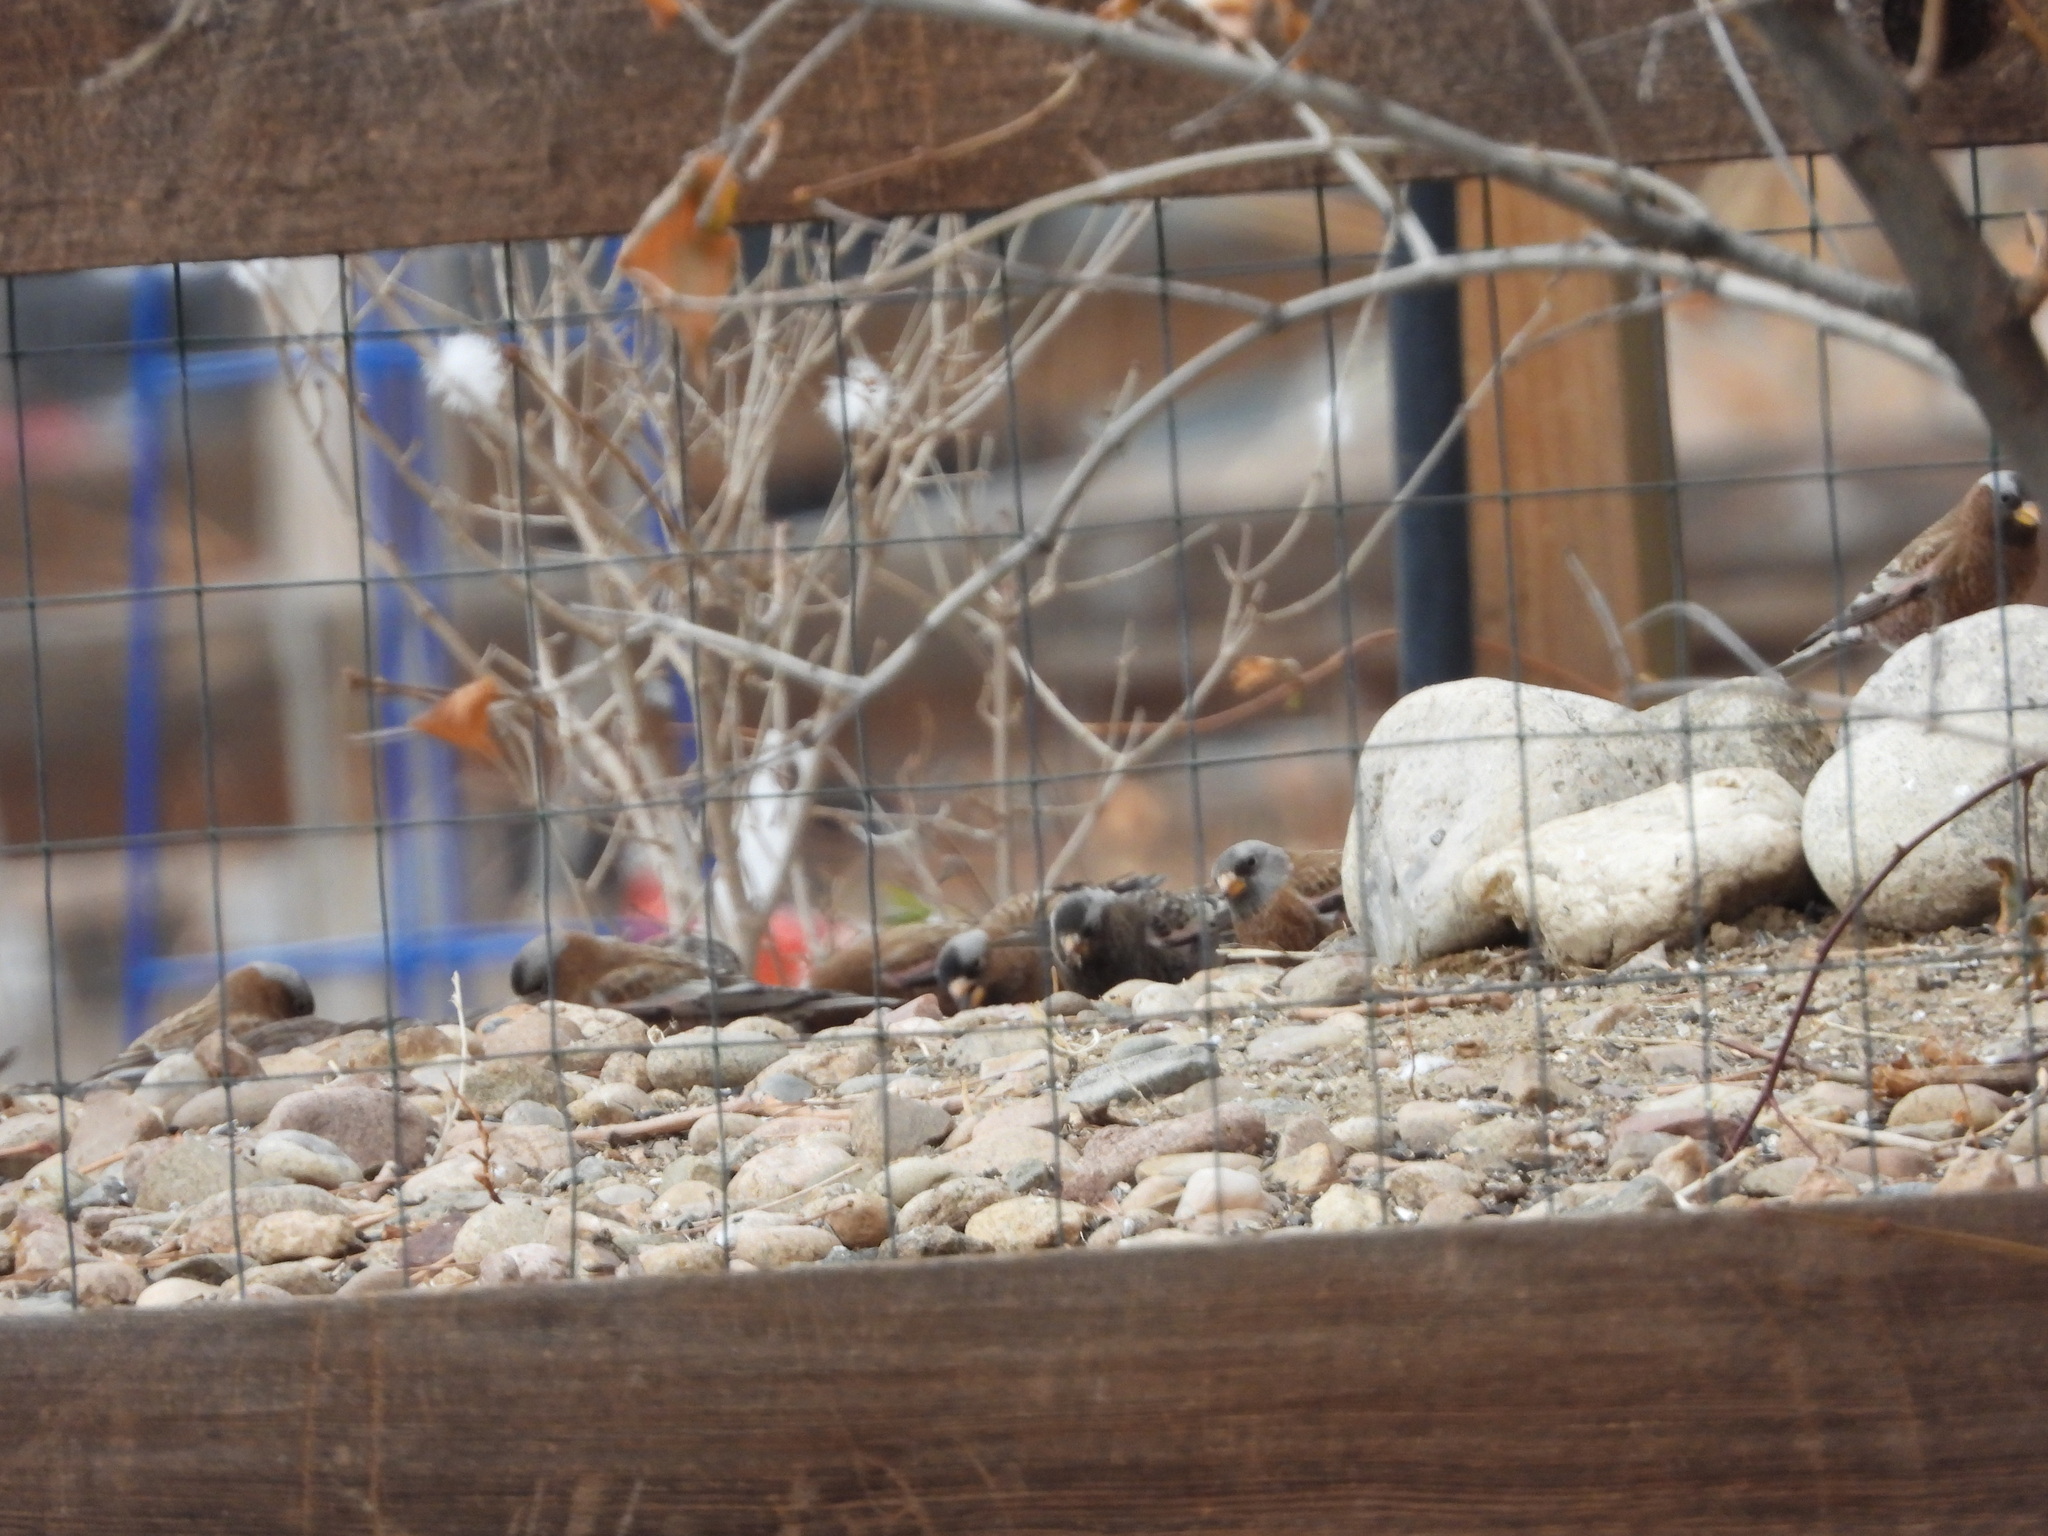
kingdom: Animalia
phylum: Chordata
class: Aves
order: Passeriformes
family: Fringillidae
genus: Leucosticte
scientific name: Leucosticte tephrocotis
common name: Gray-crowned rosy-finch
